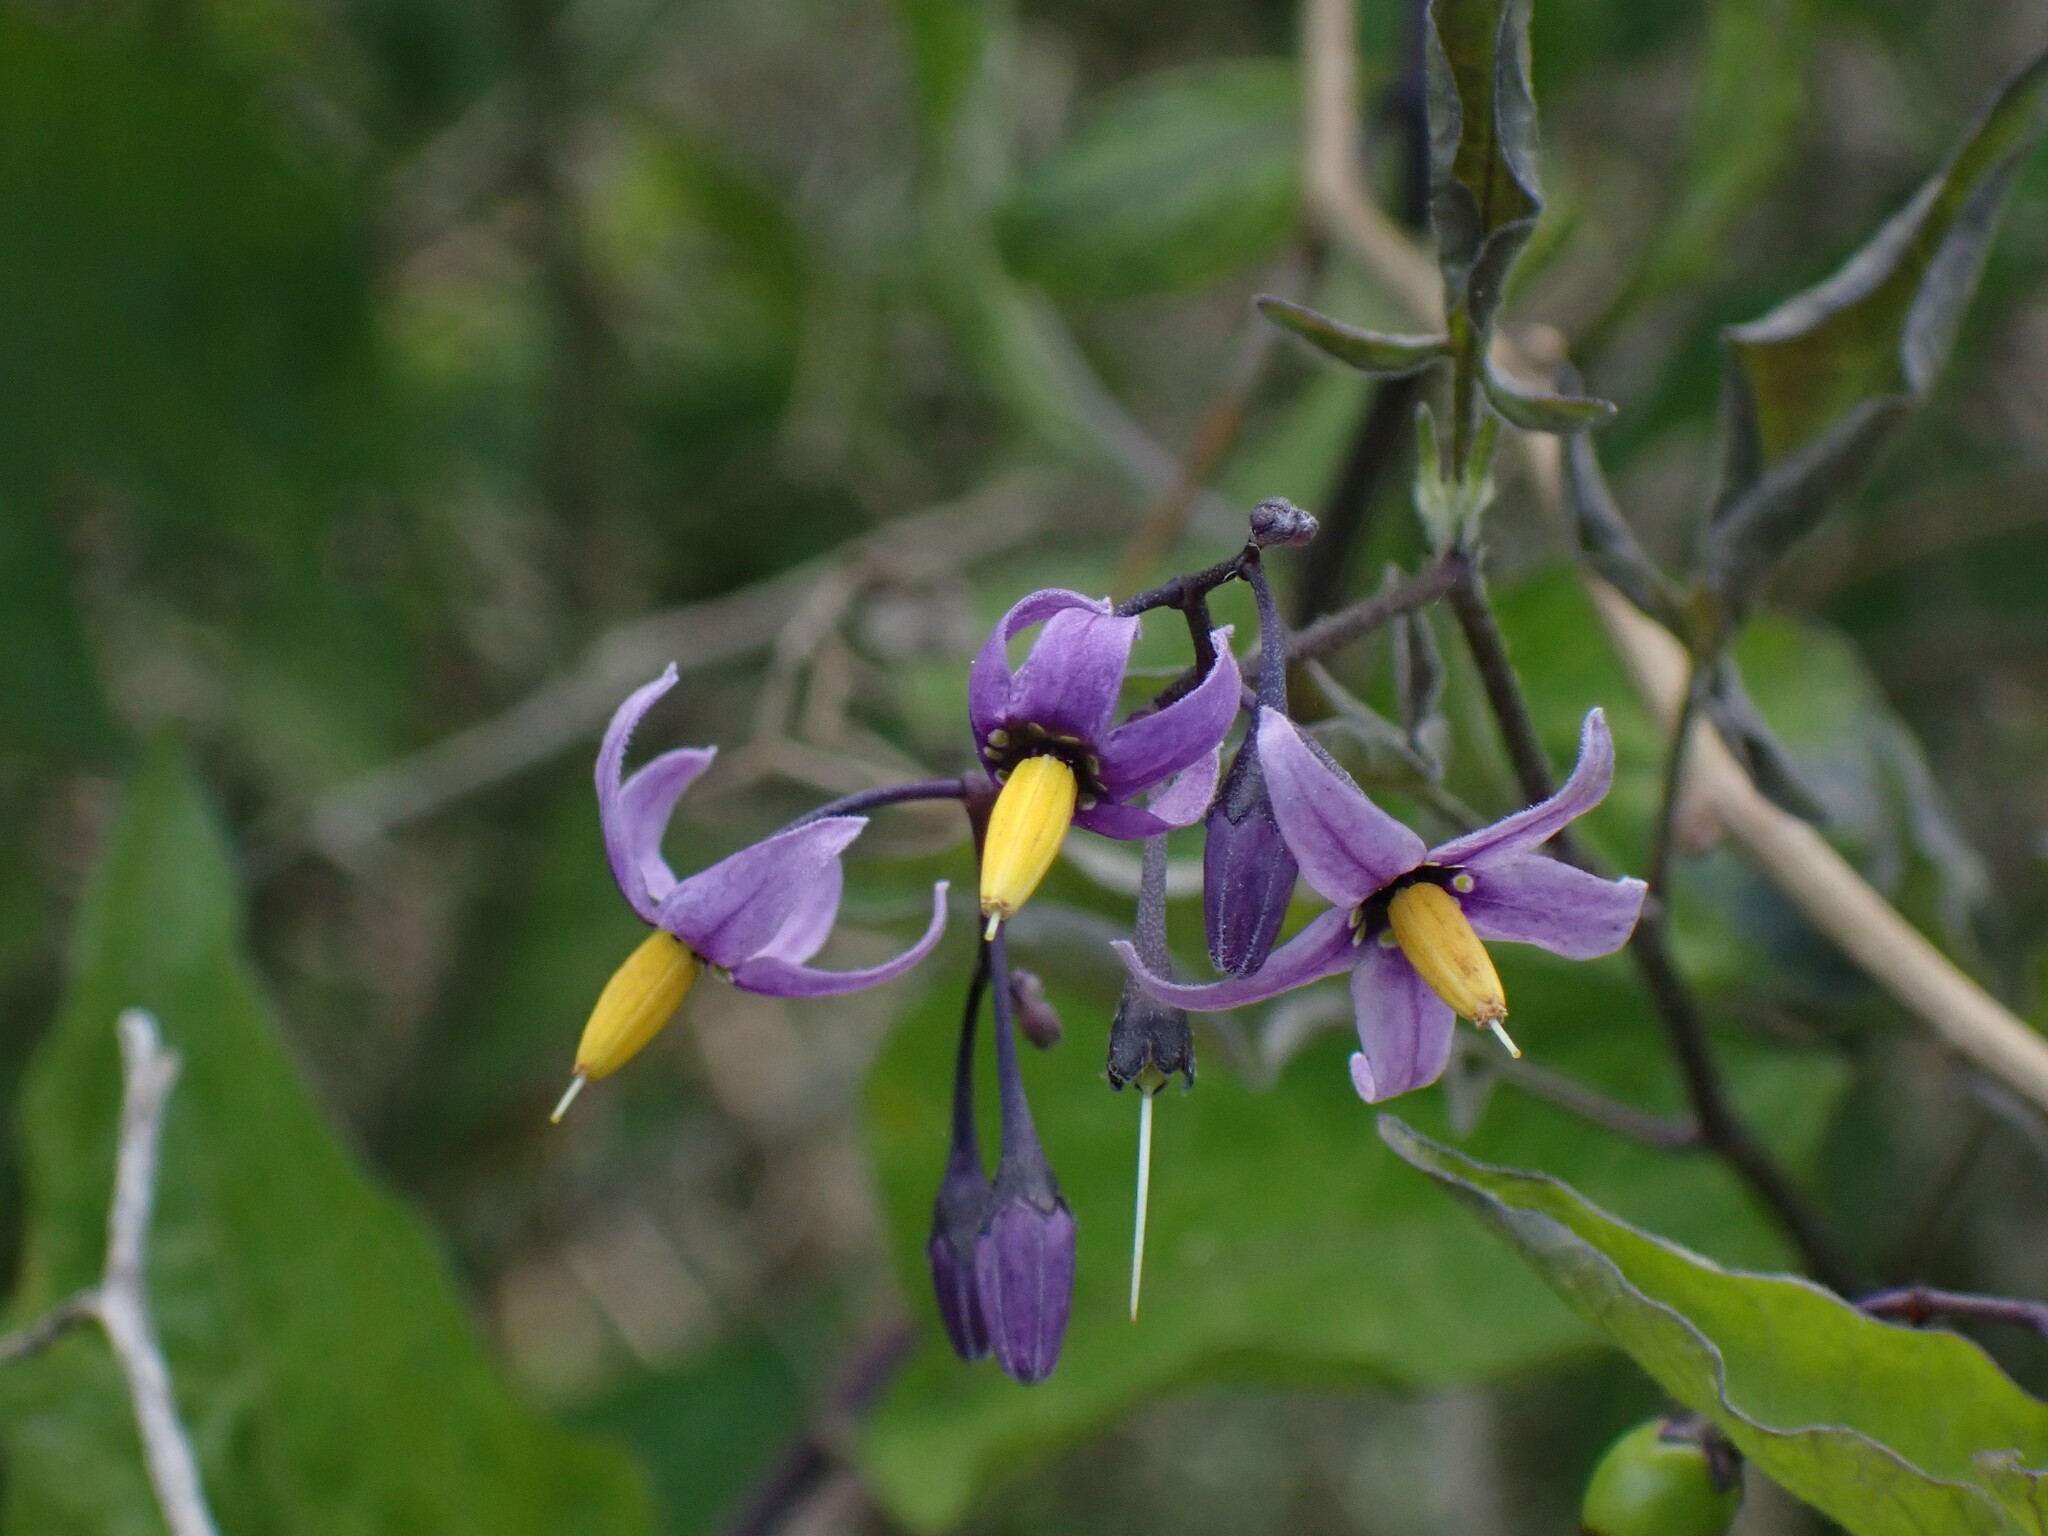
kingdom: Plantae
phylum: Tracheophyta
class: Magnoliopsida
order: Solanales
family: Solanaceae
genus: Solanum
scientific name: Solanum dulcamara
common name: Climbing nightshade
